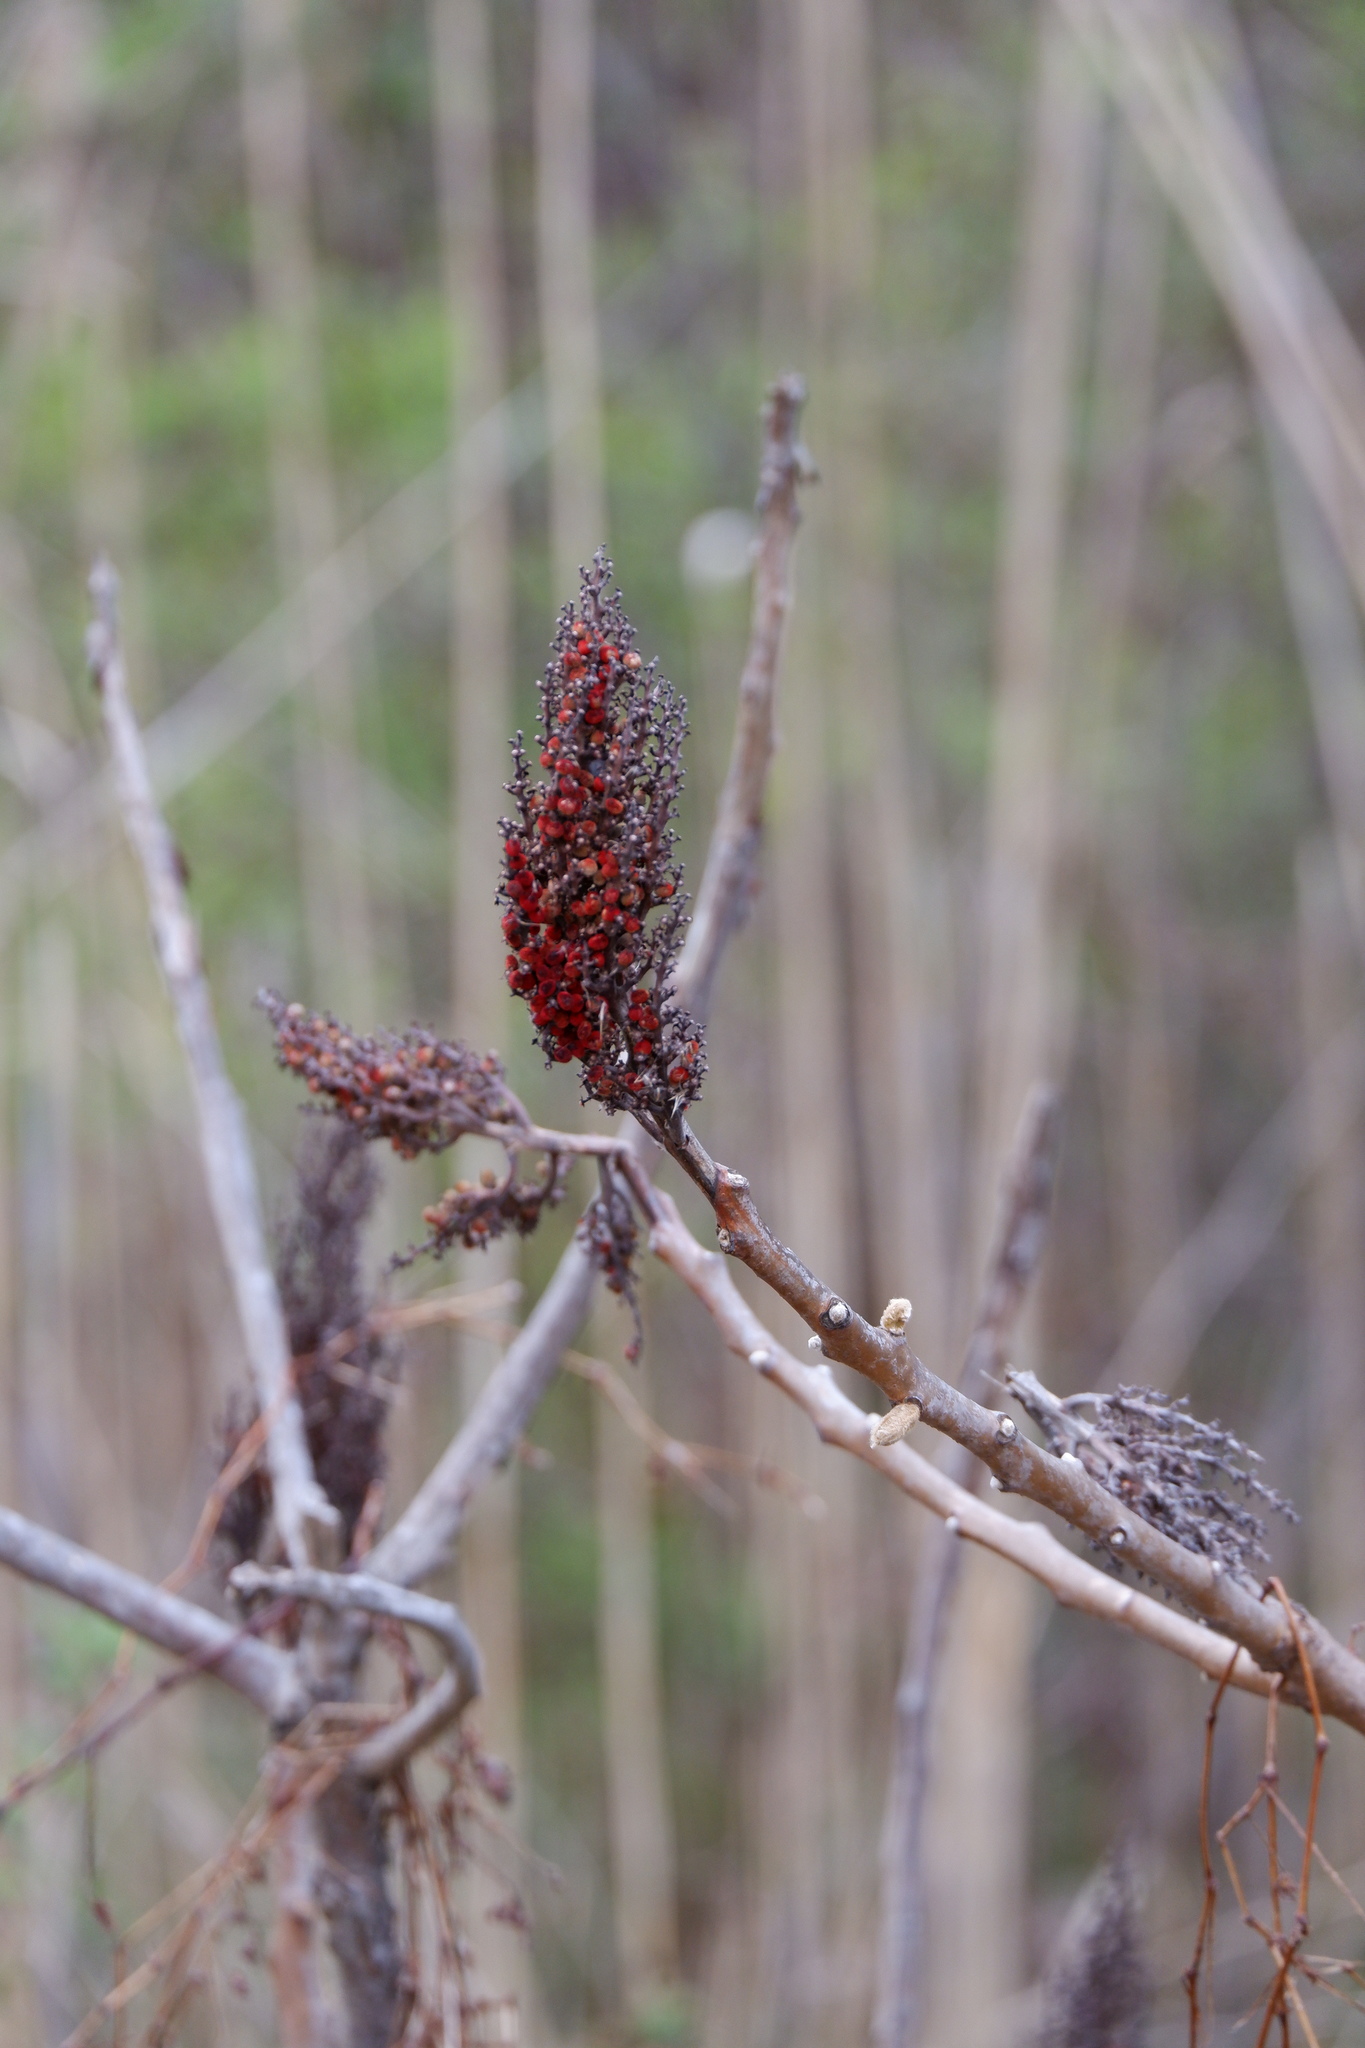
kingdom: Plantae
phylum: Tracheophyta
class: Magnoliopsida
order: Sapindales
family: Anacardiaceae
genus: Rhus
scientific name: Rhus glabra
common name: Scarlet sumac
